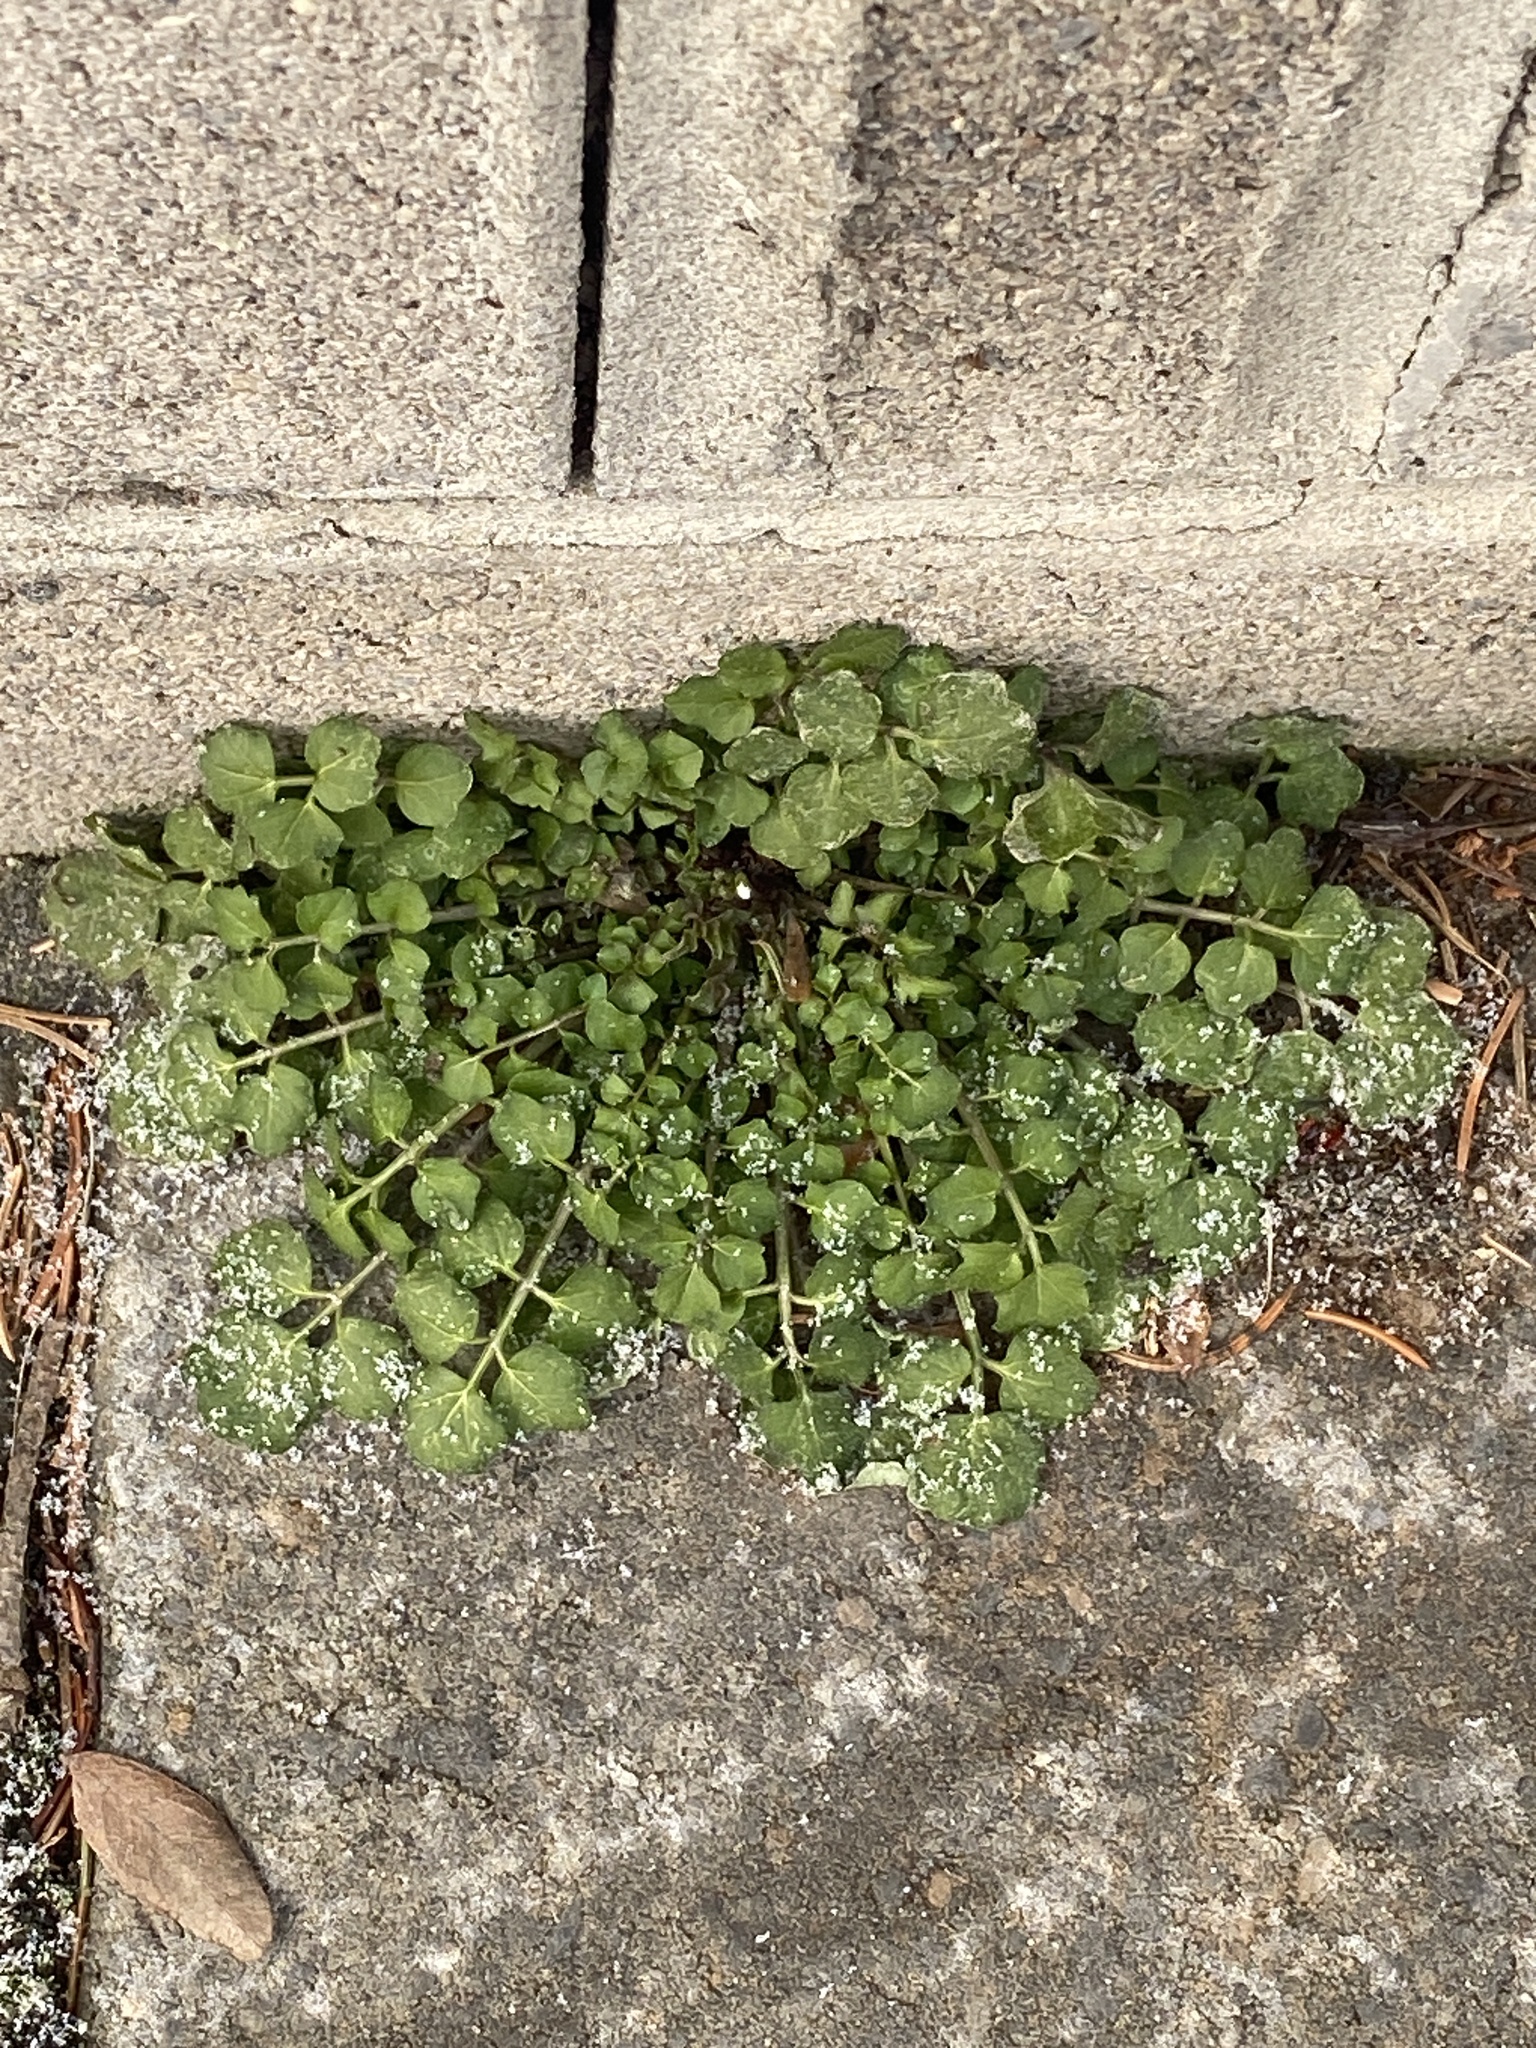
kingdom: Plantae
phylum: Tracheophyta
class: Magnoliopsida
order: Brassicales
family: Brassicaceae
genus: Cardamine
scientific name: Cardamine hirsuta
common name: Hairy bittercress
